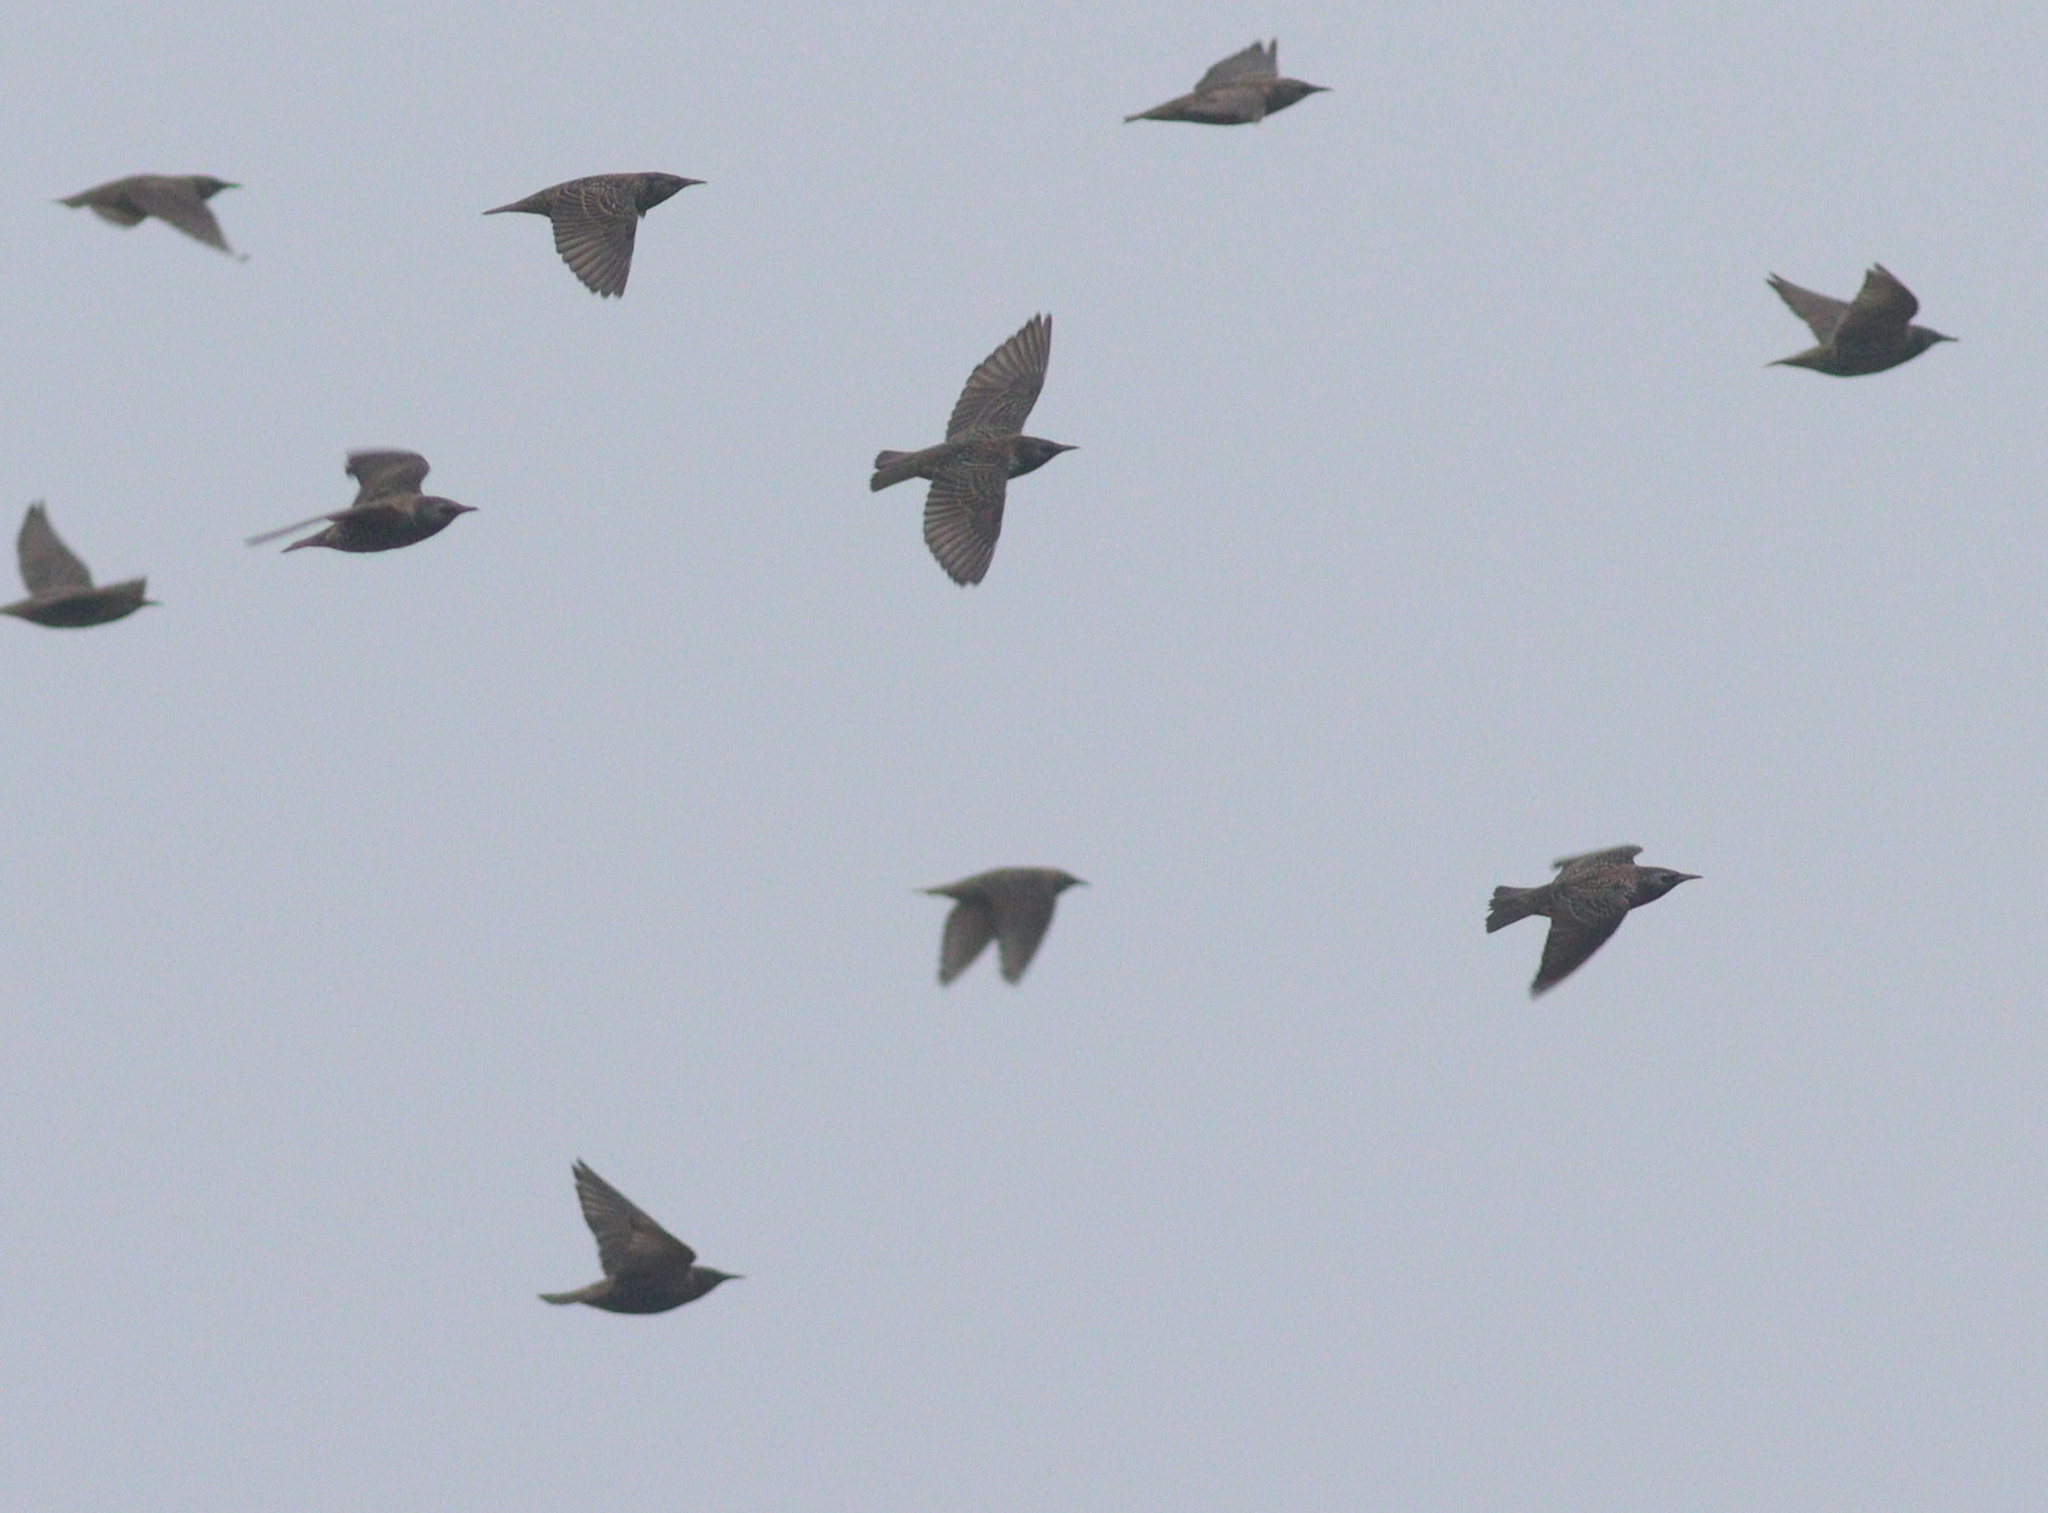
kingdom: Animalia
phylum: Chordata
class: Aves
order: Passeriformes
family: Sturnidae
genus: Sturnus
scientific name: Sturnus vulgaris
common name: Common starling
